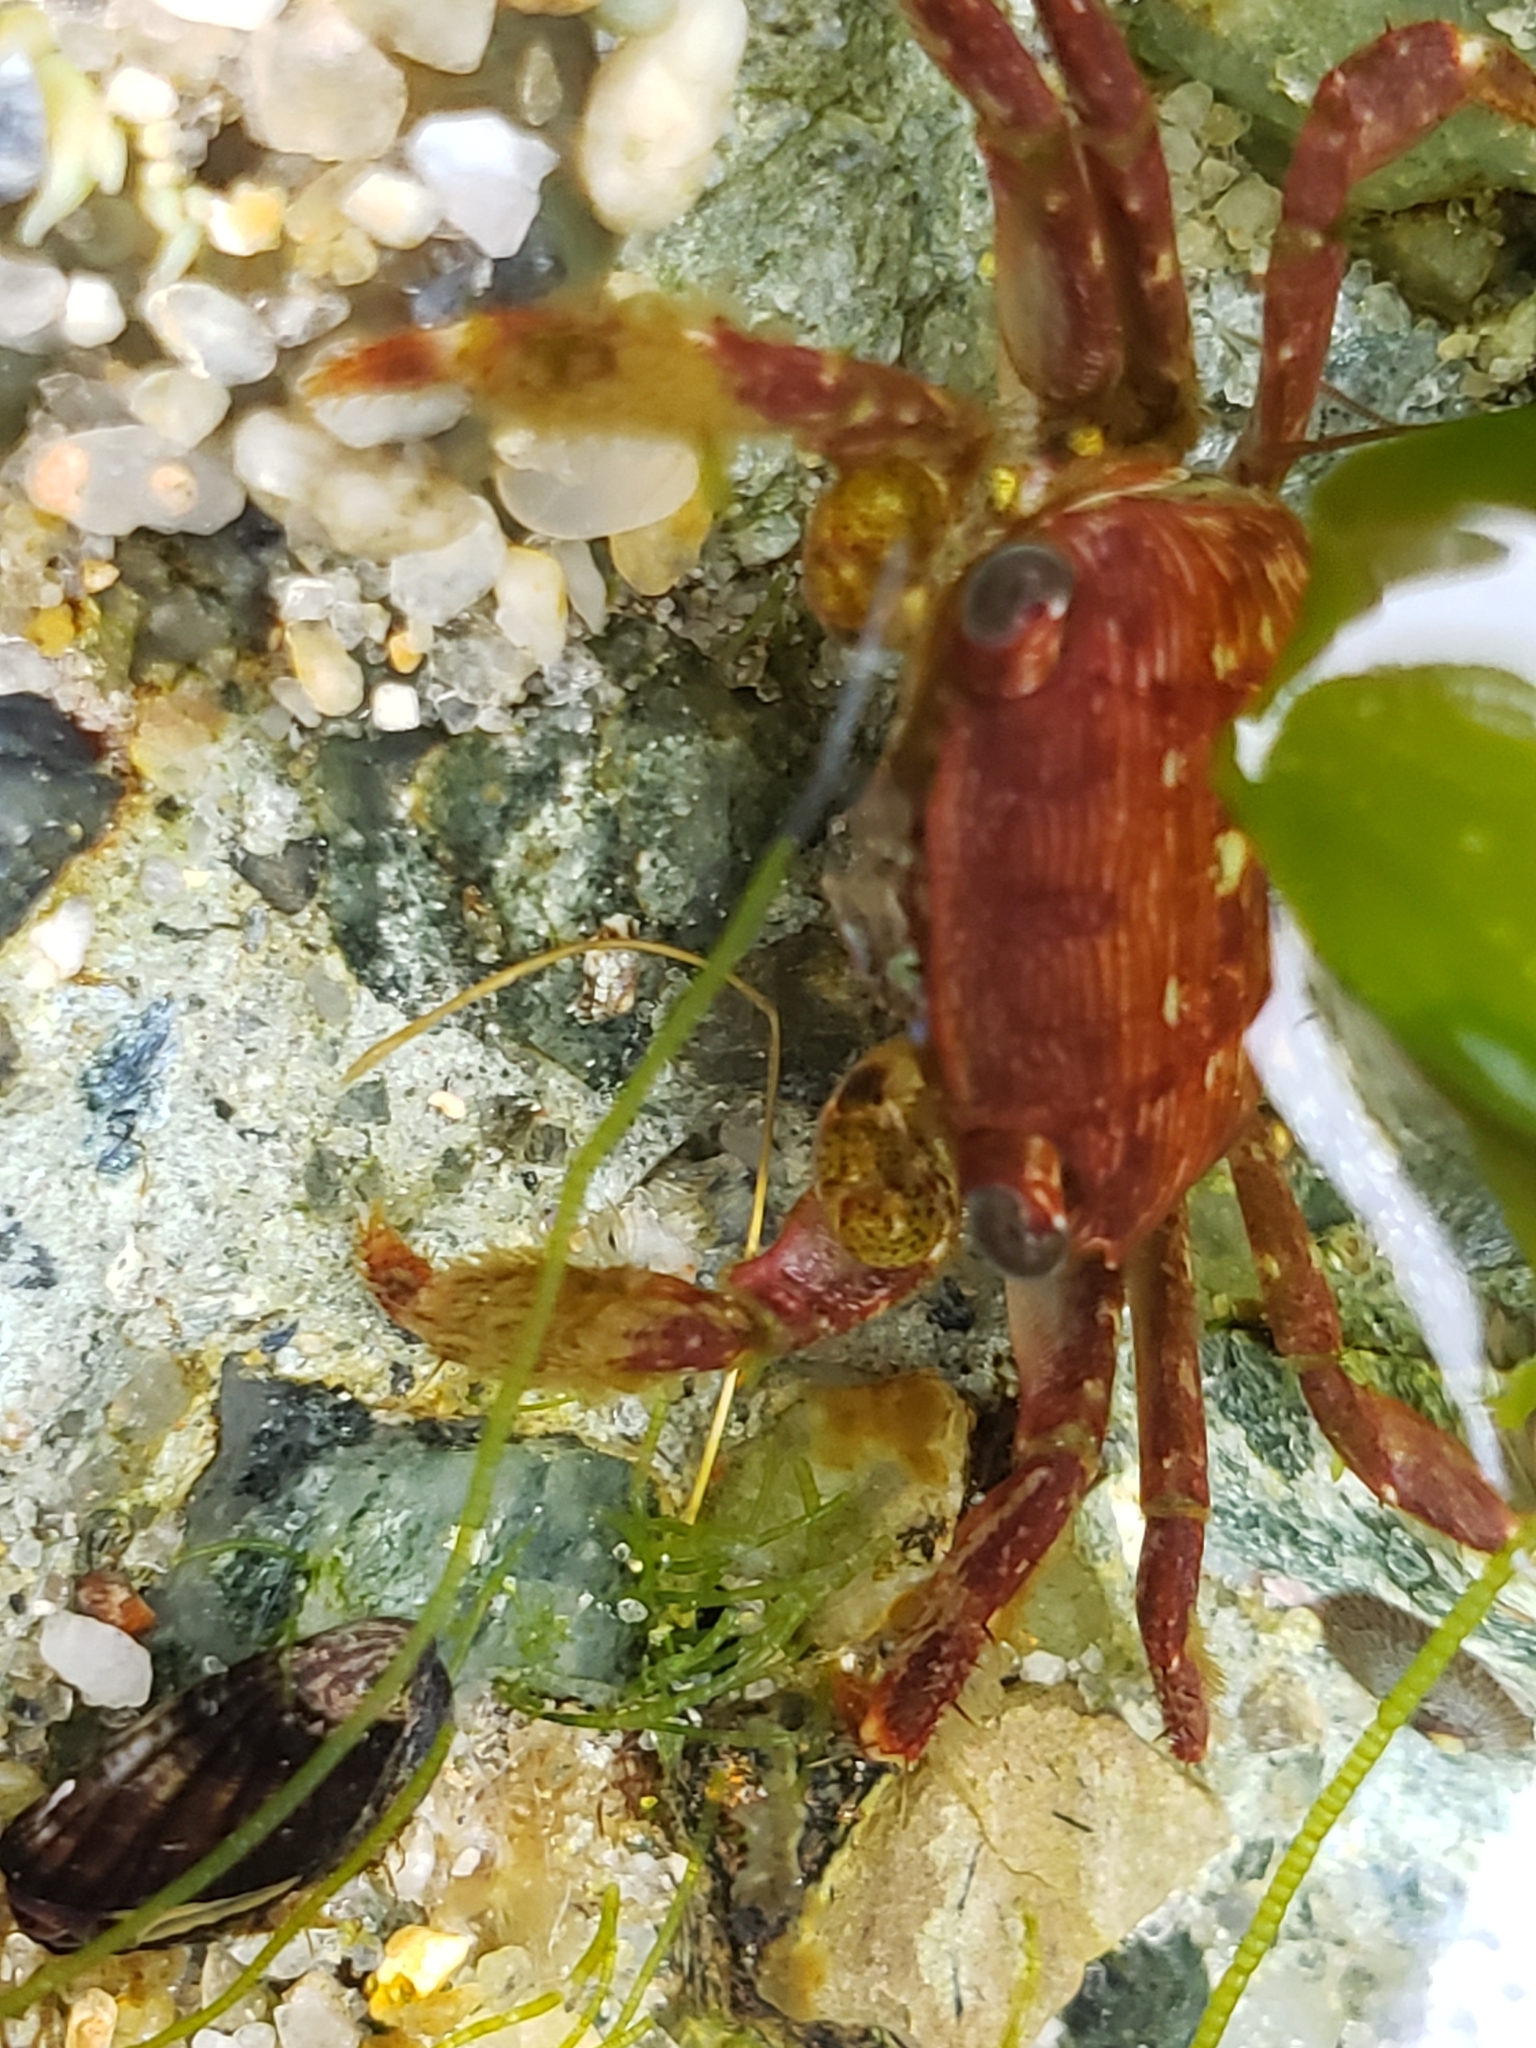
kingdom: Animalia
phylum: Arthropoda
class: Malacostraca
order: Decapoda
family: Grapsidae
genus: Pachygrapsus
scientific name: Pachygrapsus crassipes
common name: Striped shore crab
